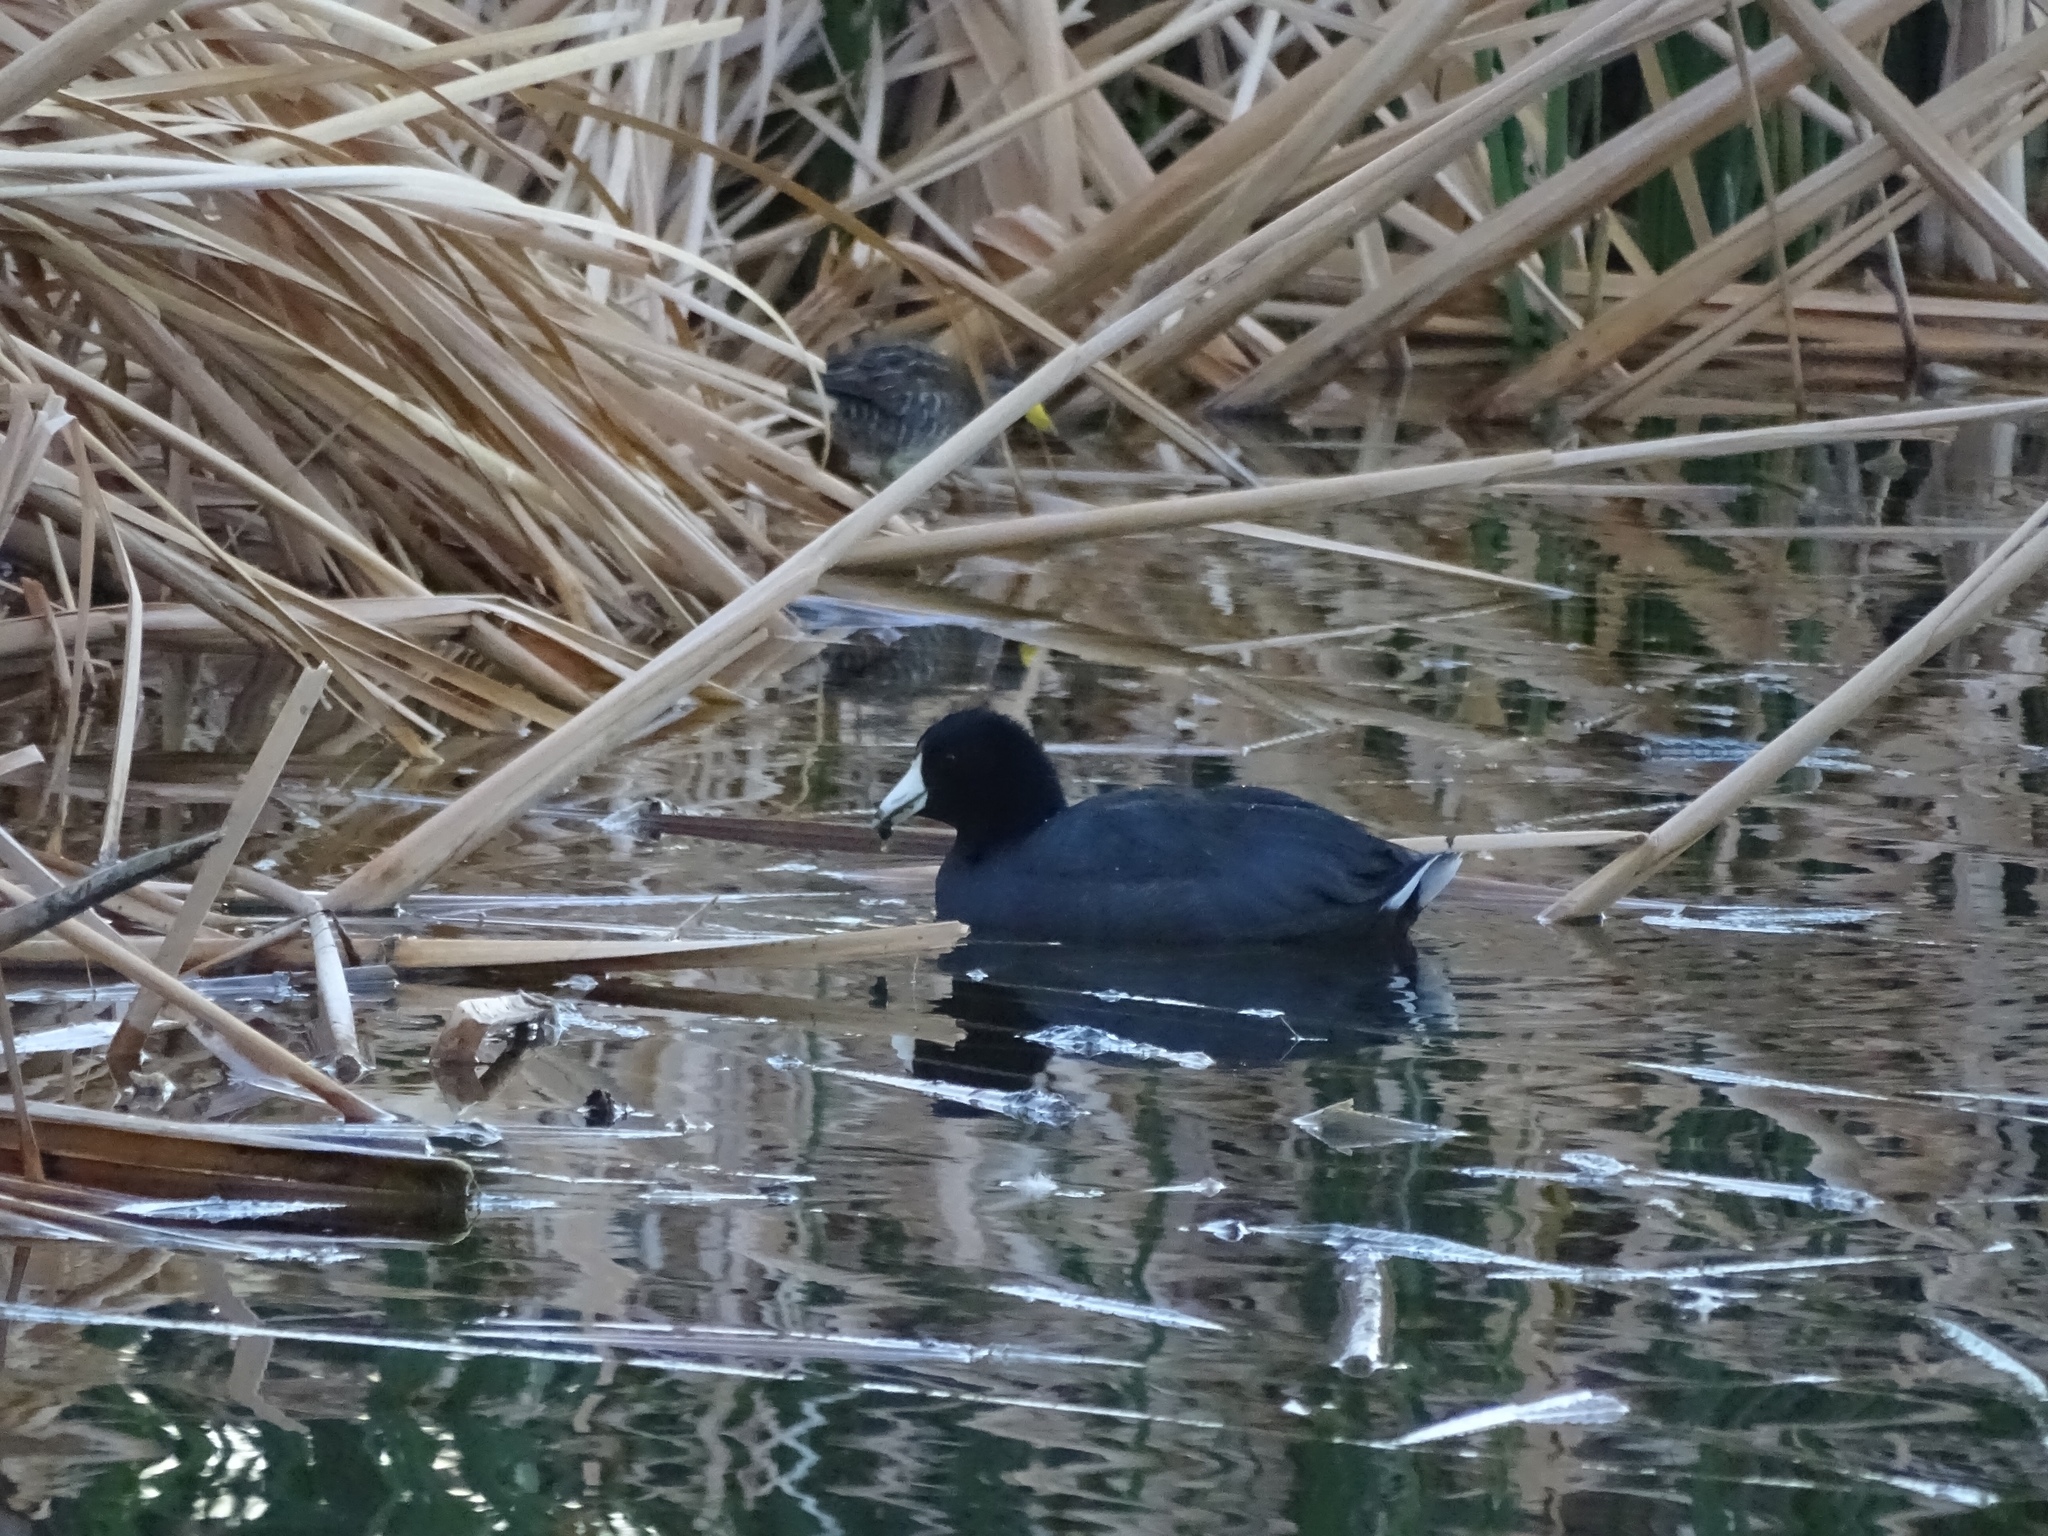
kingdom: Animalia
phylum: Chordata
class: Aves
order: Gruiformes
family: Rallidae
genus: Fulica
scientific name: Fulica americana
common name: American coot
